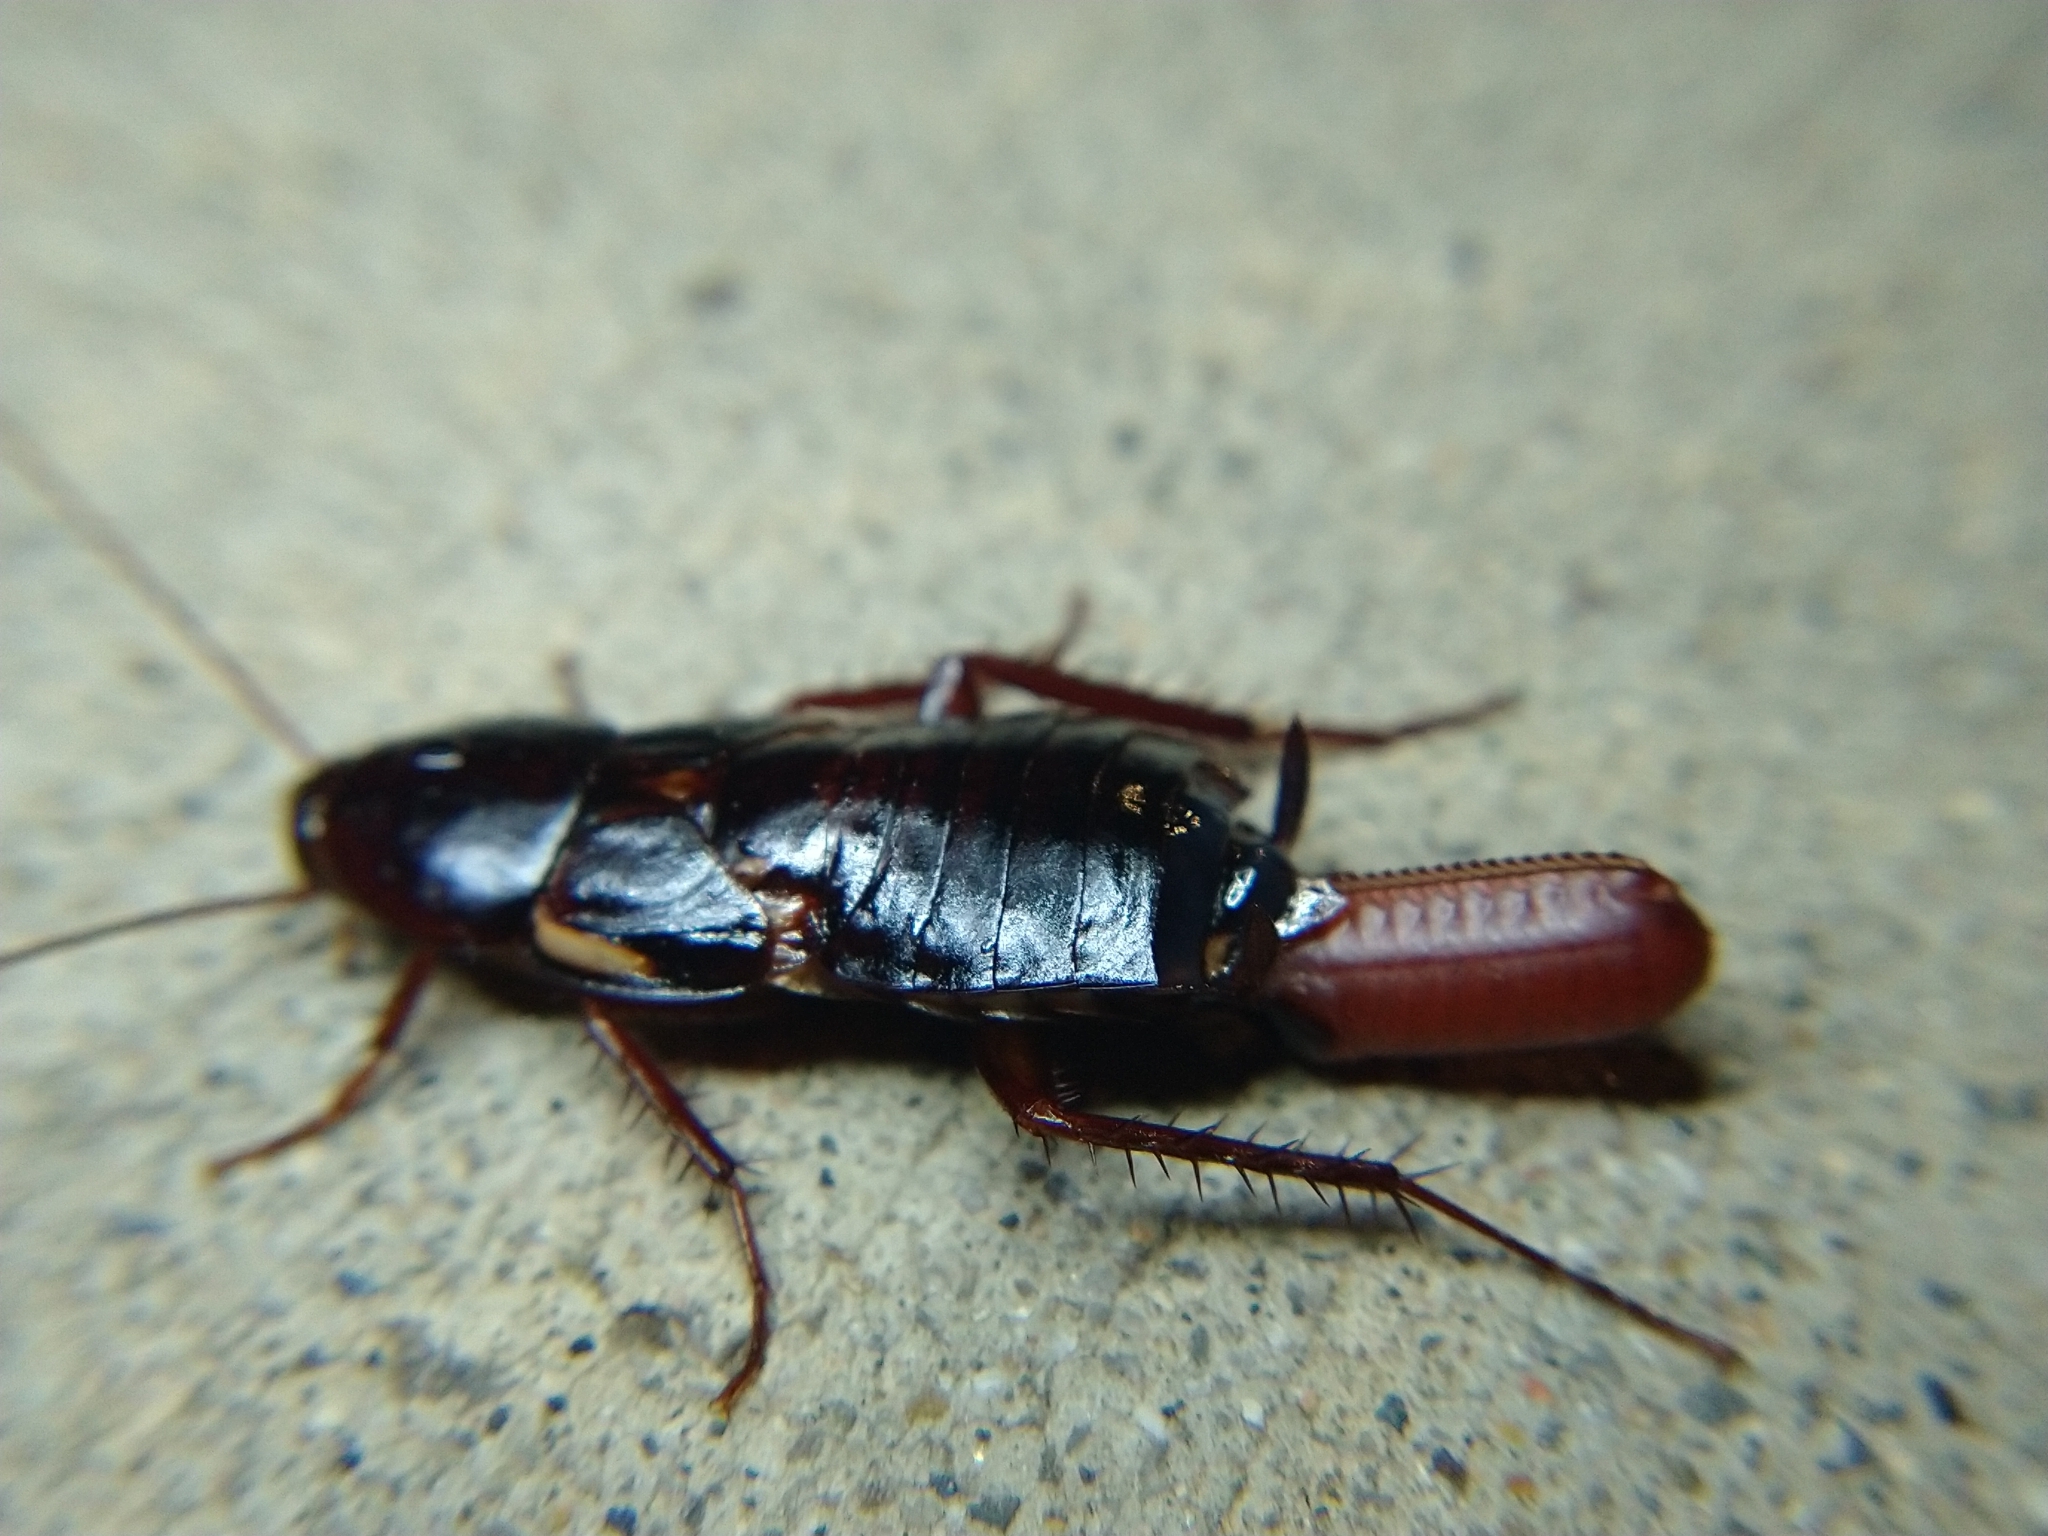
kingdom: Animalia
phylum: Arthropoda
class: Insecta
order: Blattodea
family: Blattidae
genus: Periplaneta
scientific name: Periplaneta lateralis
